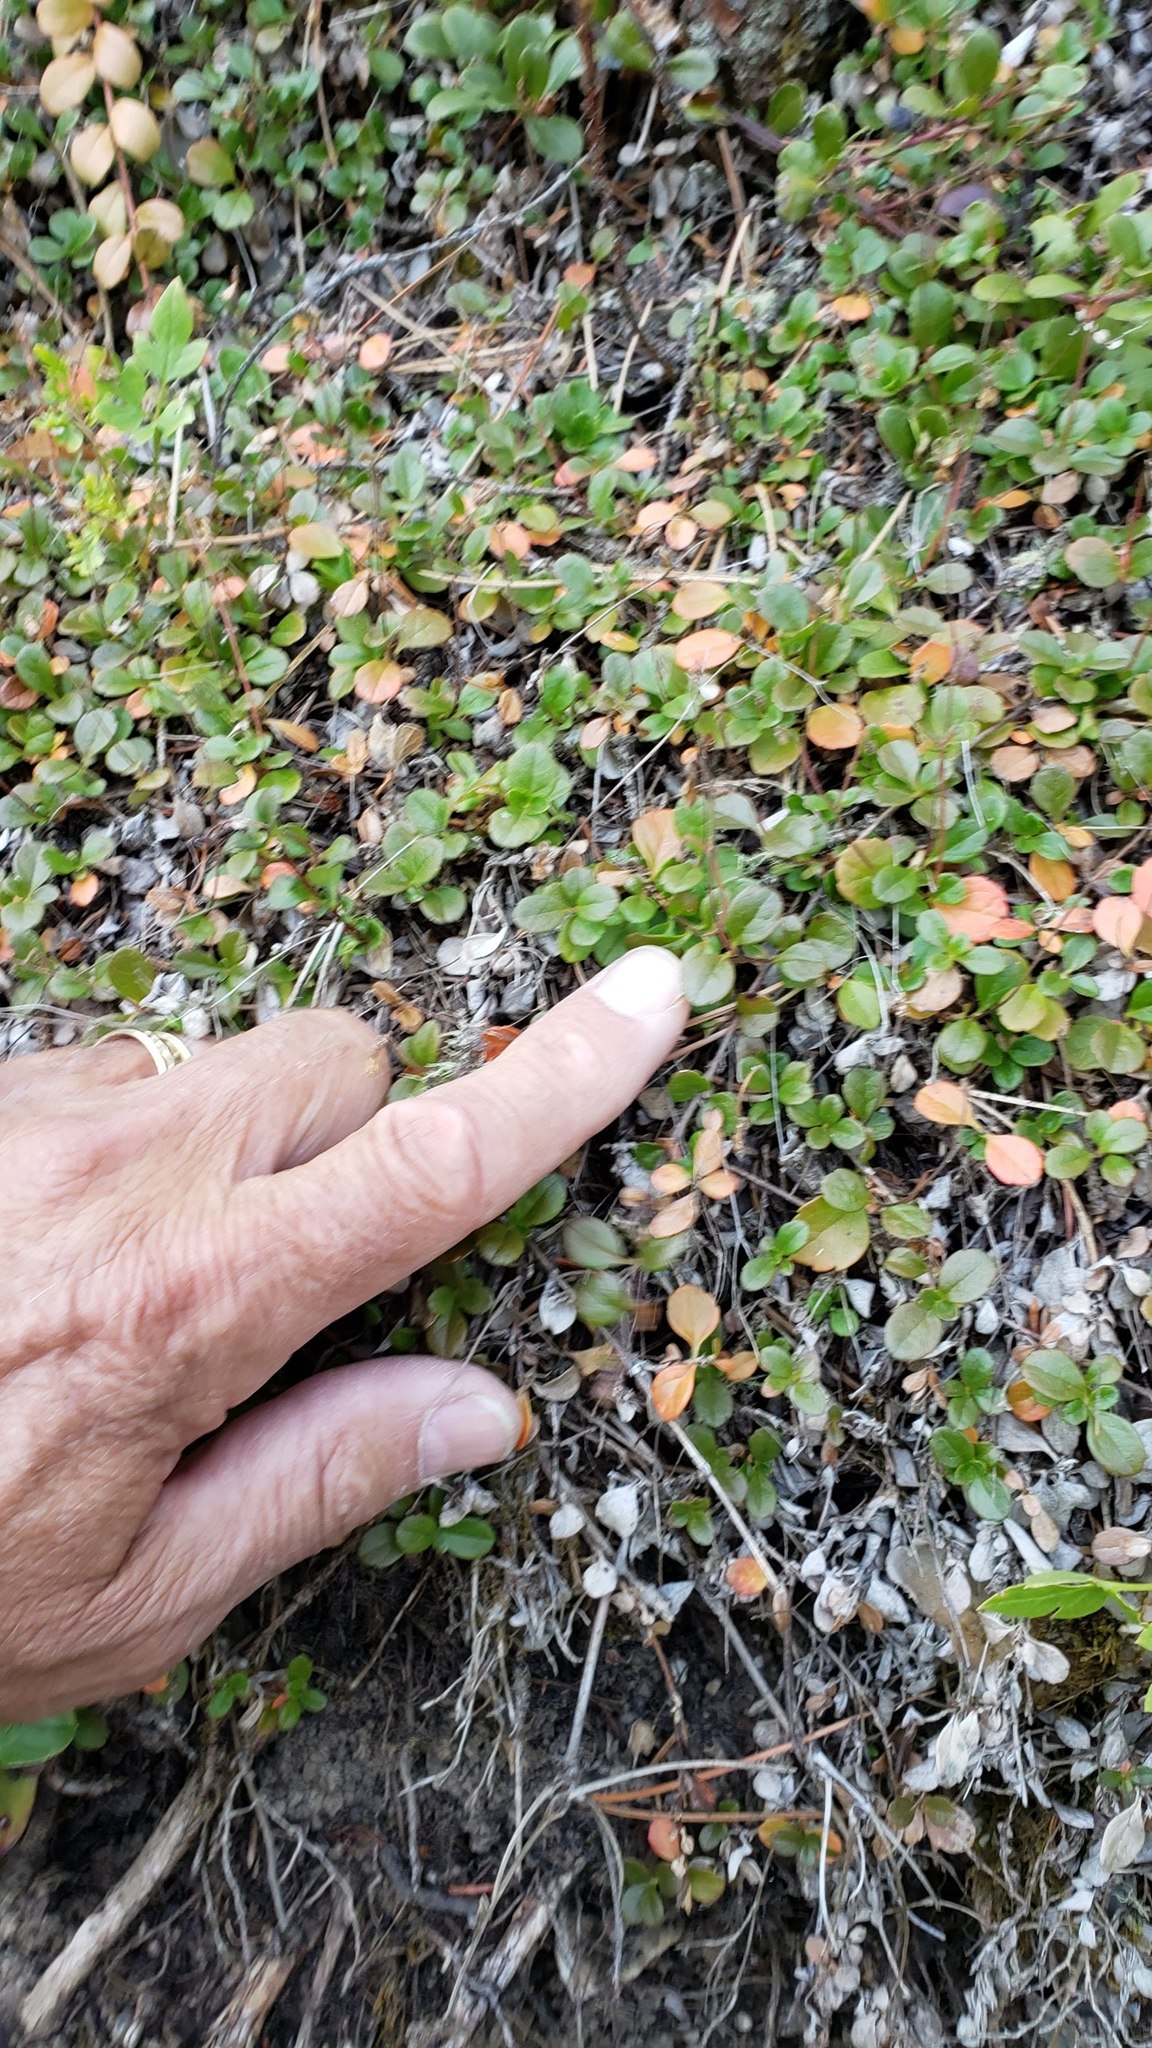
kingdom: Plantae
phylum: Tracheophyta
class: Magnoliopsida
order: Dipsacales
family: Caprifoliaceae
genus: Linnaea
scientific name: Linnaea borealis
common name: Twinflower
